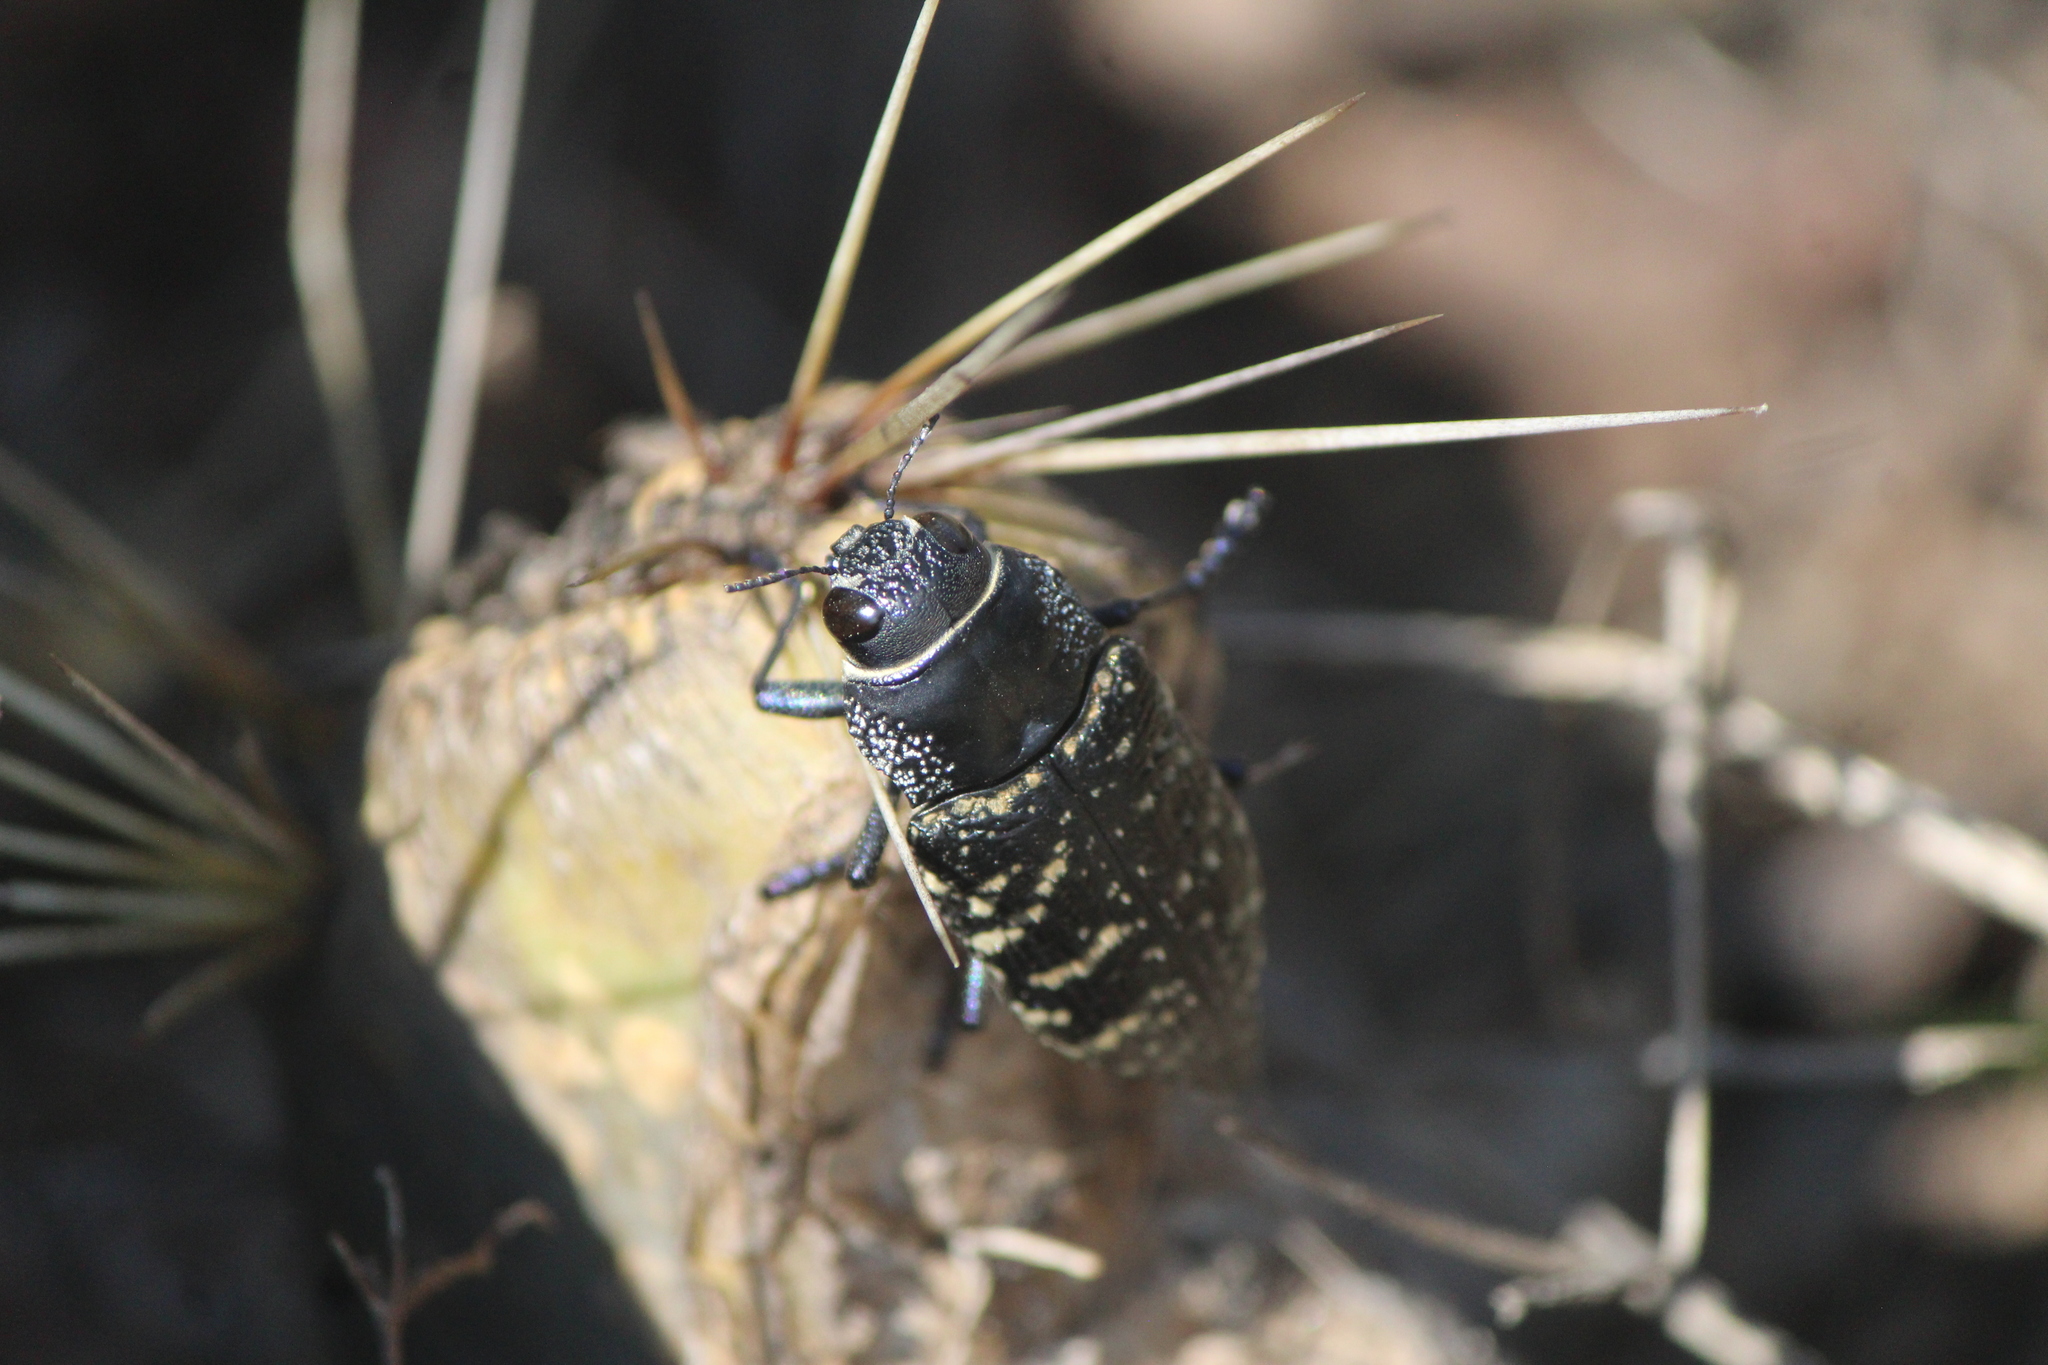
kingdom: Animalia
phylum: Arthropoda
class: Insecta
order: Coleoptera
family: Buprestidae
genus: Lampetis
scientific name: Lampetis dilaticollis
